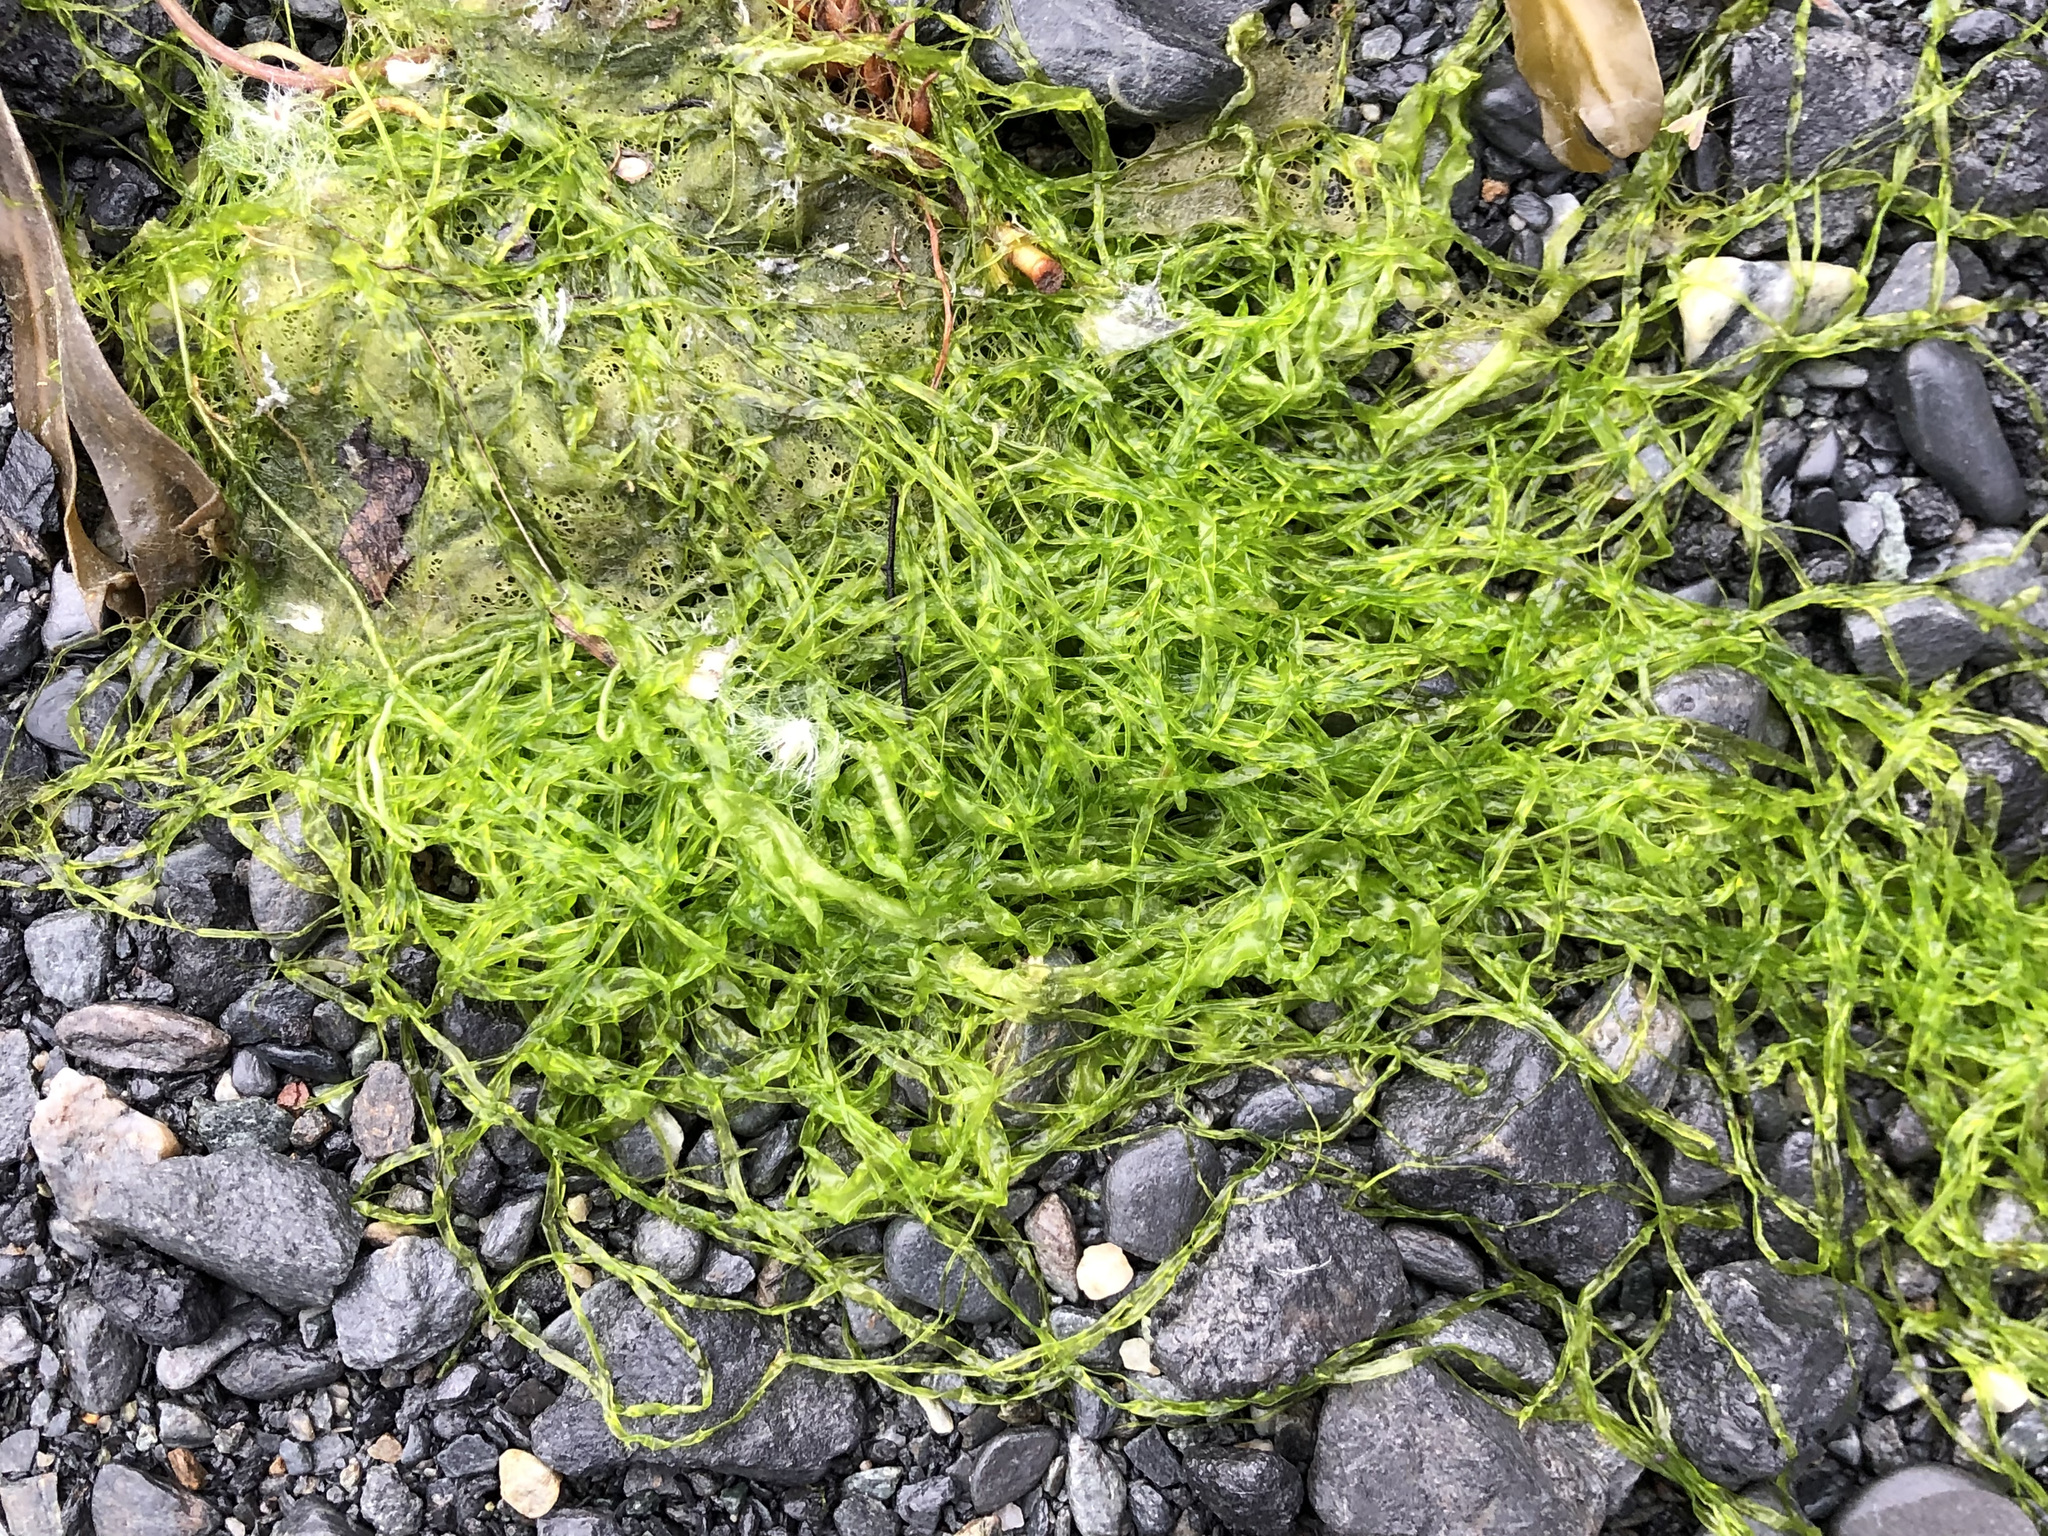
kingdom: Plantae
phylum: Chlorophyta
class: Ulvophyceae
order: Ulvales
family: Ulvaceae
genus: Ulva
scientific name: Ulva intestinalis
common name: Gut weed
